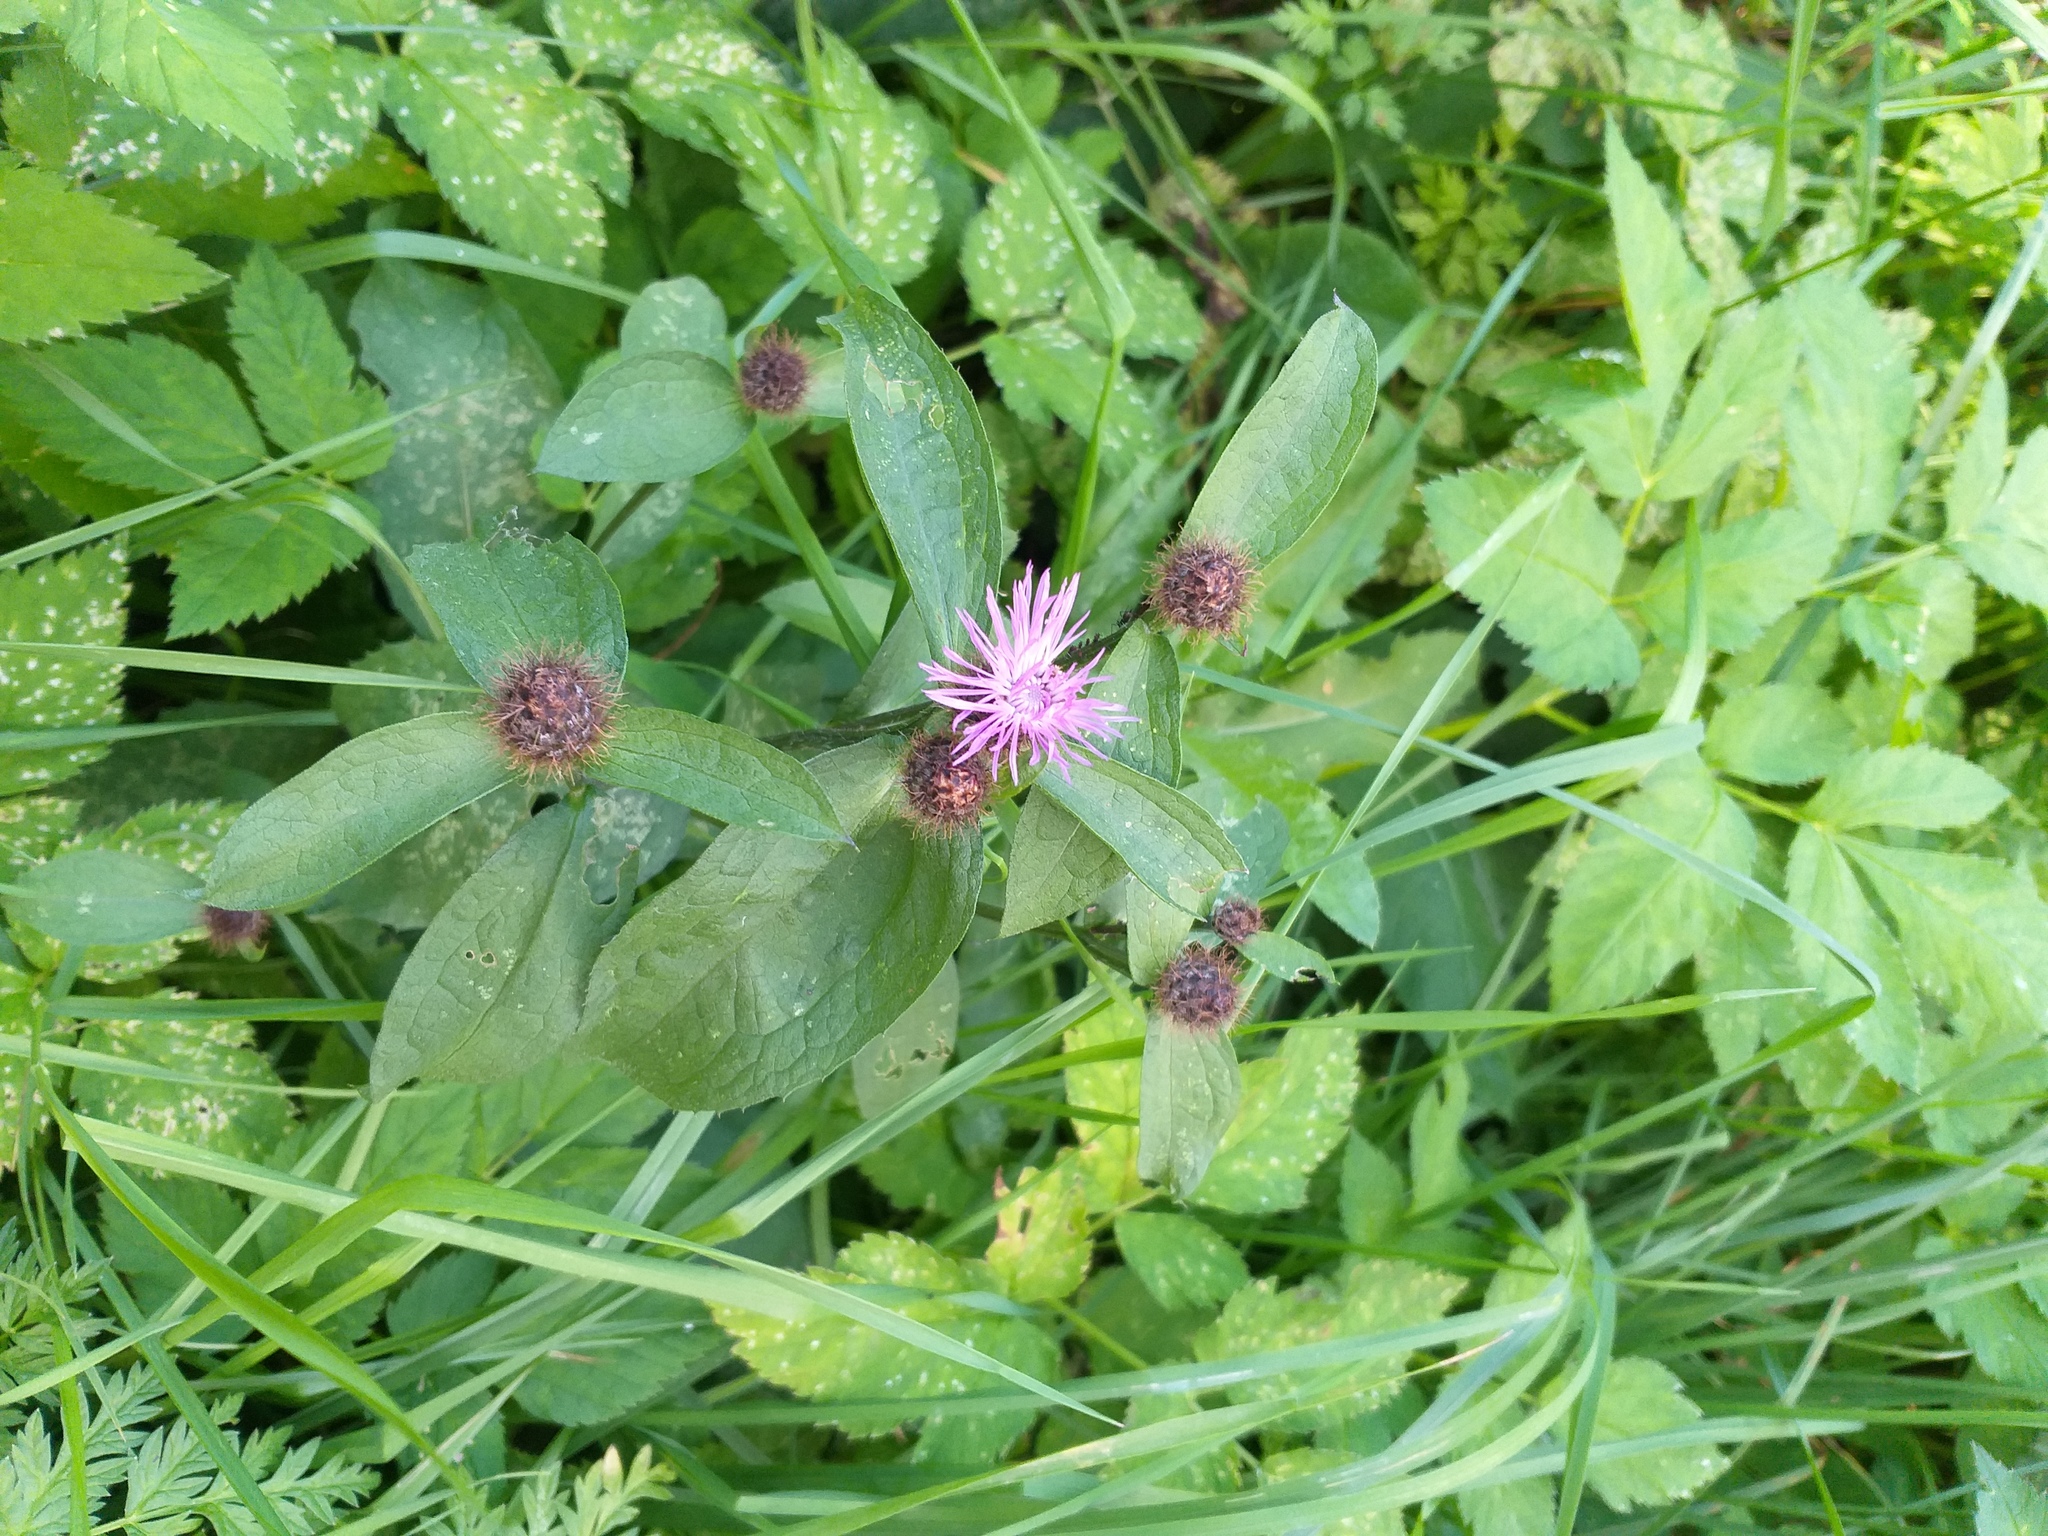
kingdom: Plantae
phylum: Tracheophyta
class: Magnoliopsida
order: Asterales
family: Asteraceae
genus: Centaurea
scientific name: Centaurea pseudophrygia
